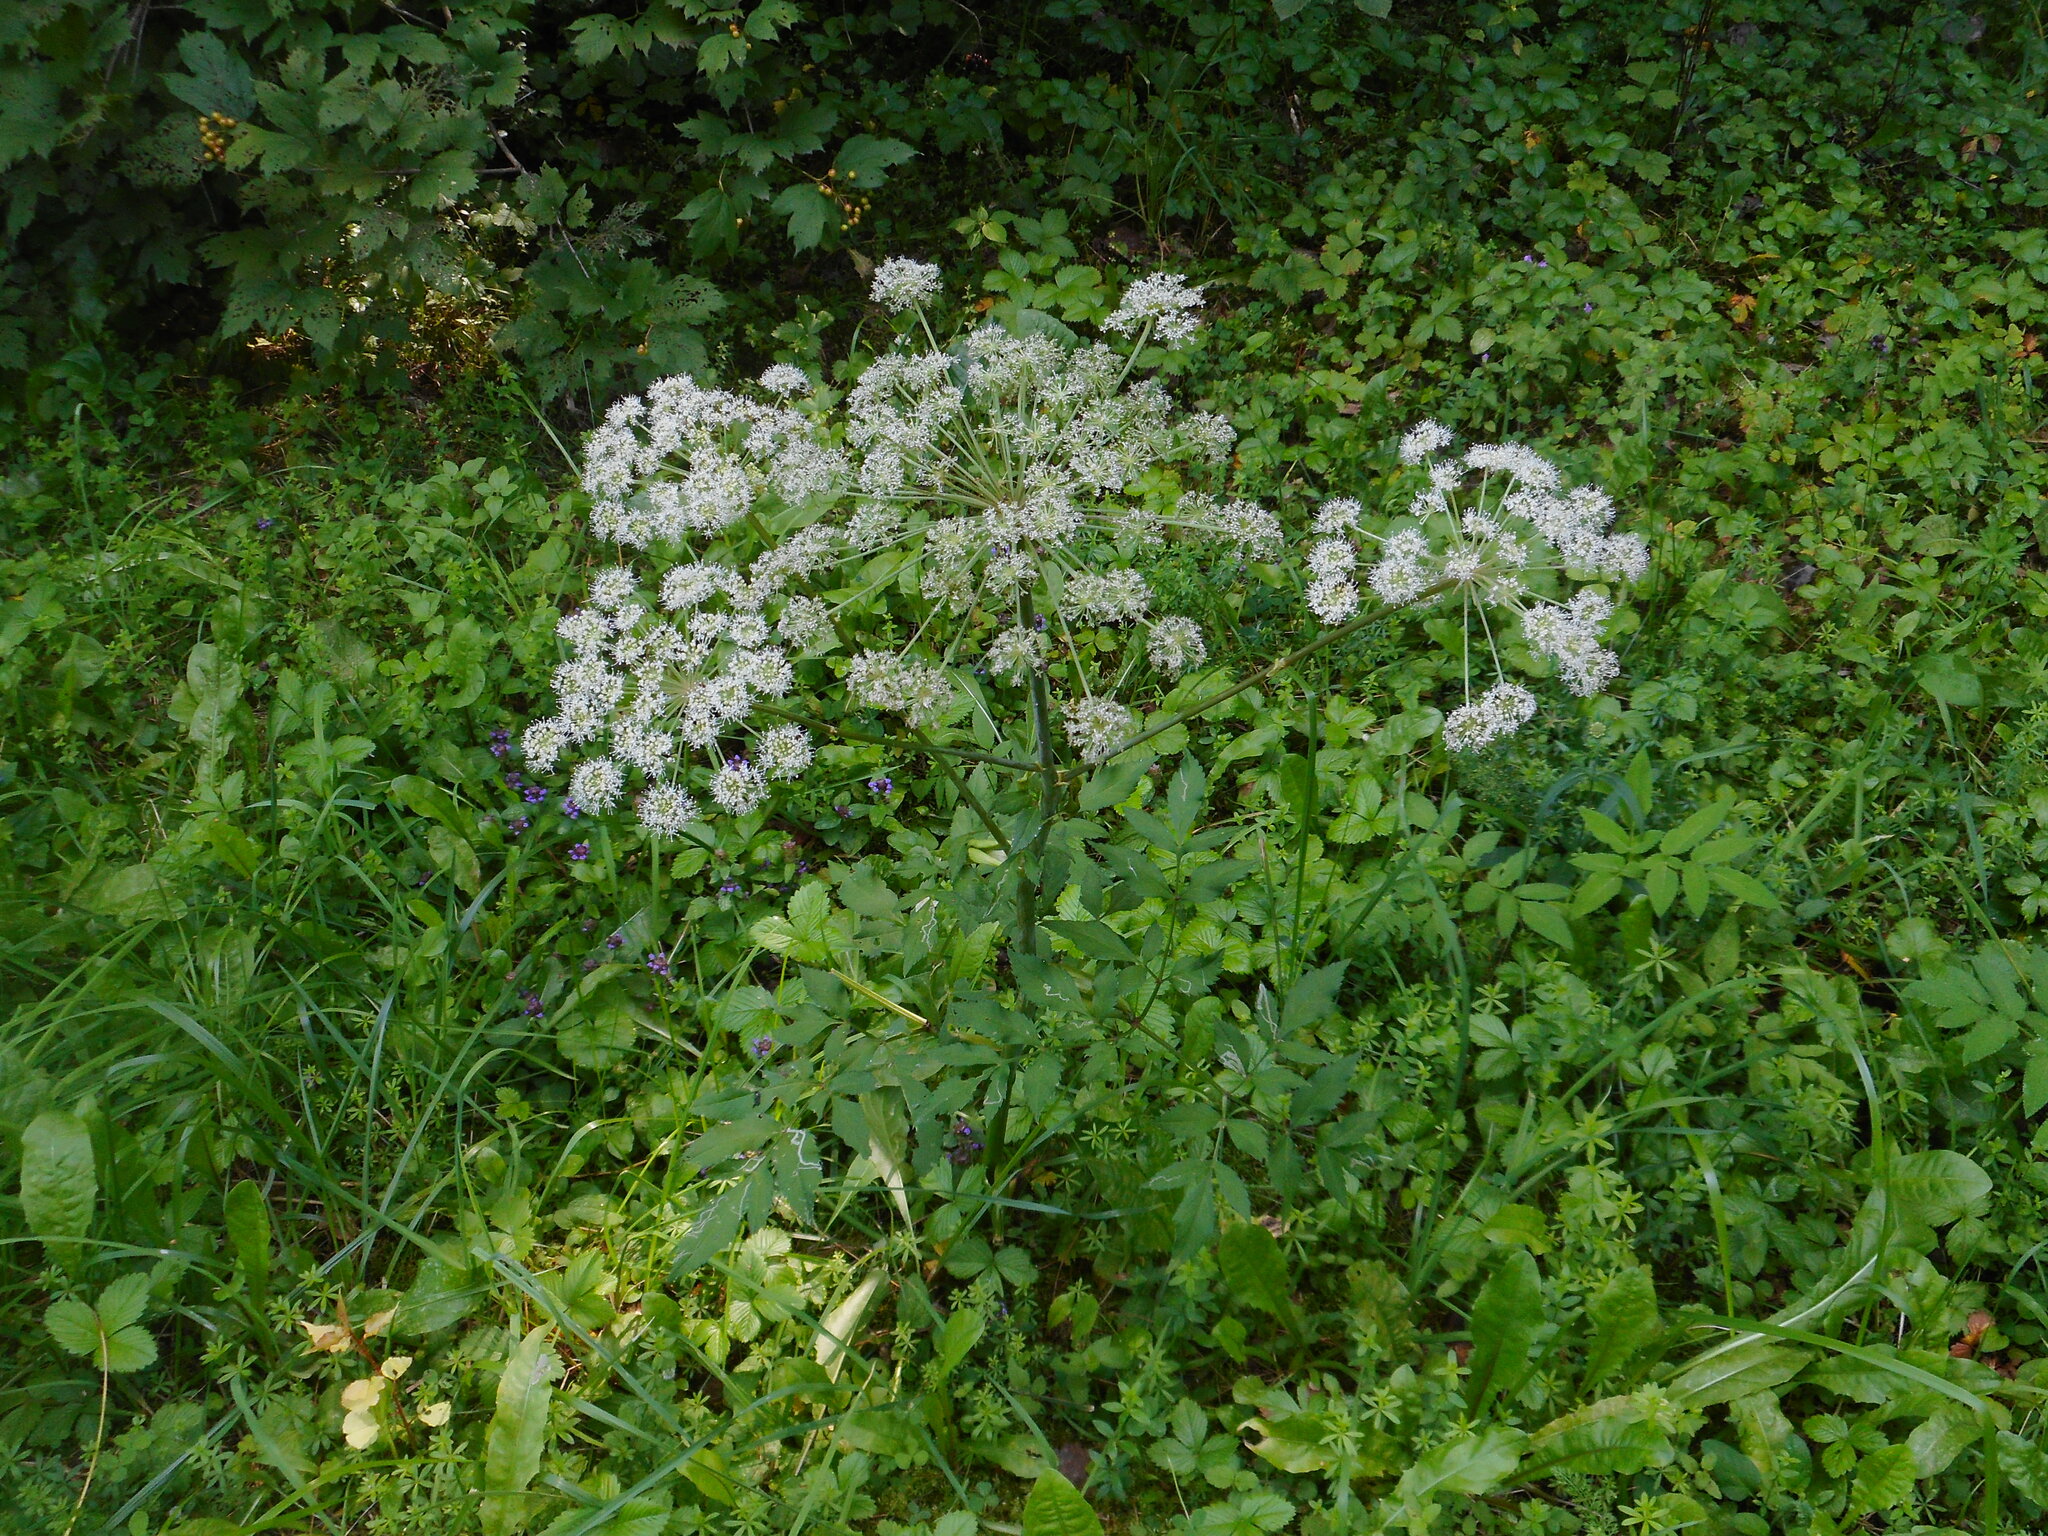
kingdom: Plantae
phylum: Tracheophyta
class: Magnoliopsida
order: Apiales
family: Apiaceae
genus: Angelica
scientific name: Angelica sylvestris
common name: Wild angelica
